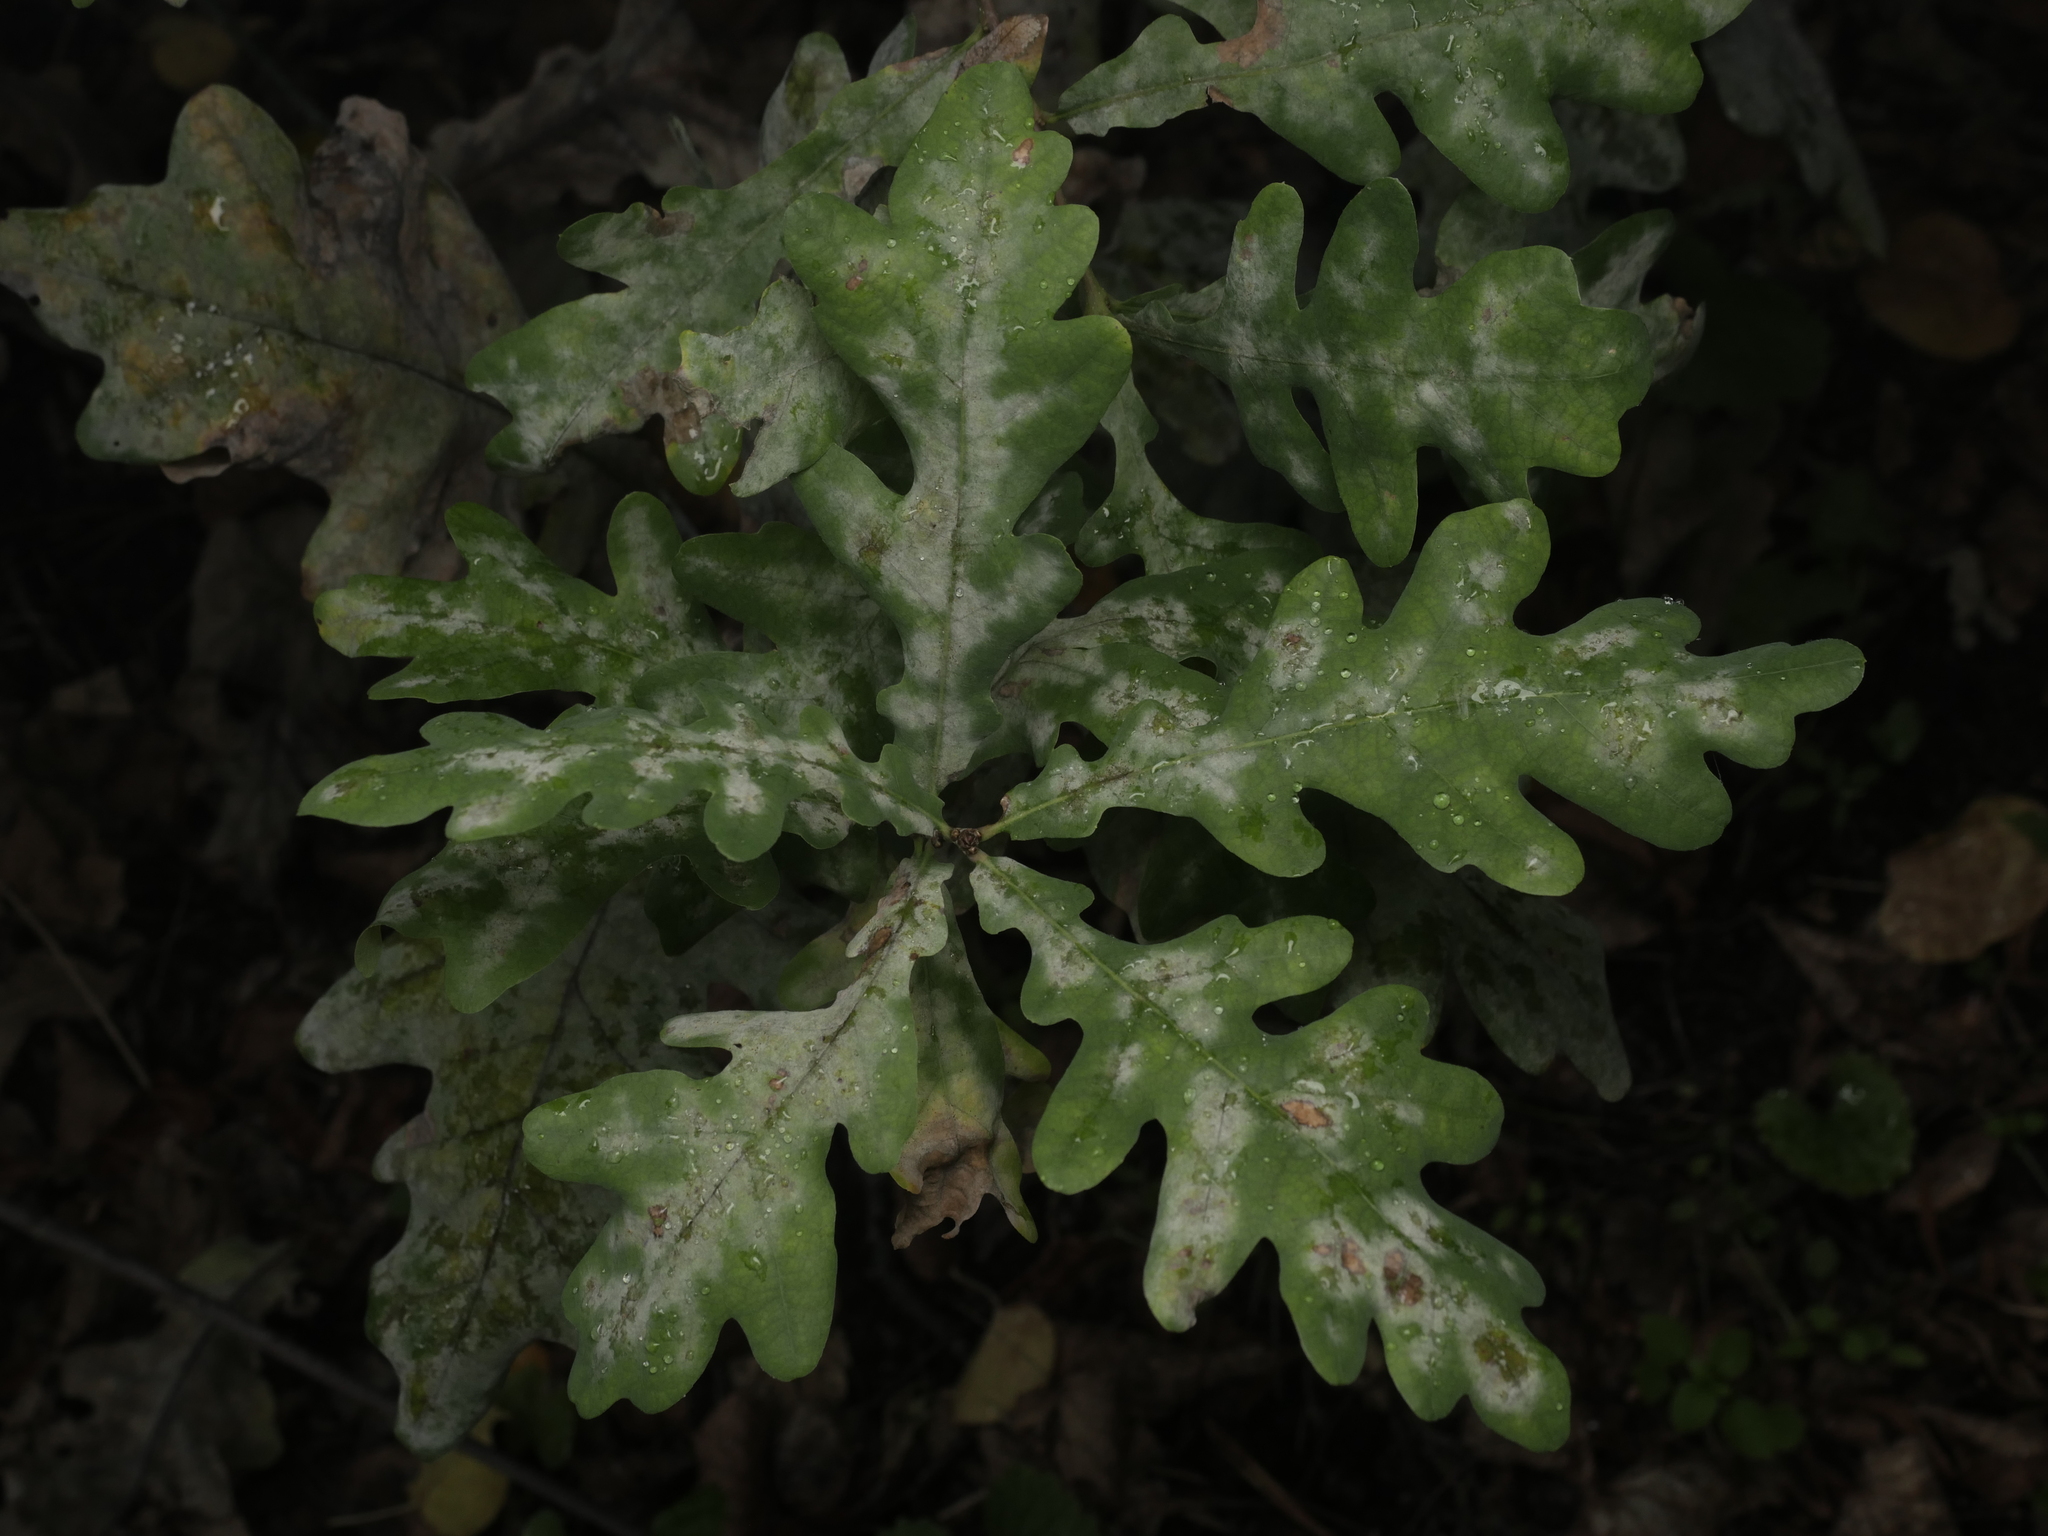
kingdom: Fungi
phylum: Ascomycota
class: Leotiomycetes
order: Helotiales
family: Erysiphaceae
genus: Erysiphe
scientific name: Erysiphe
